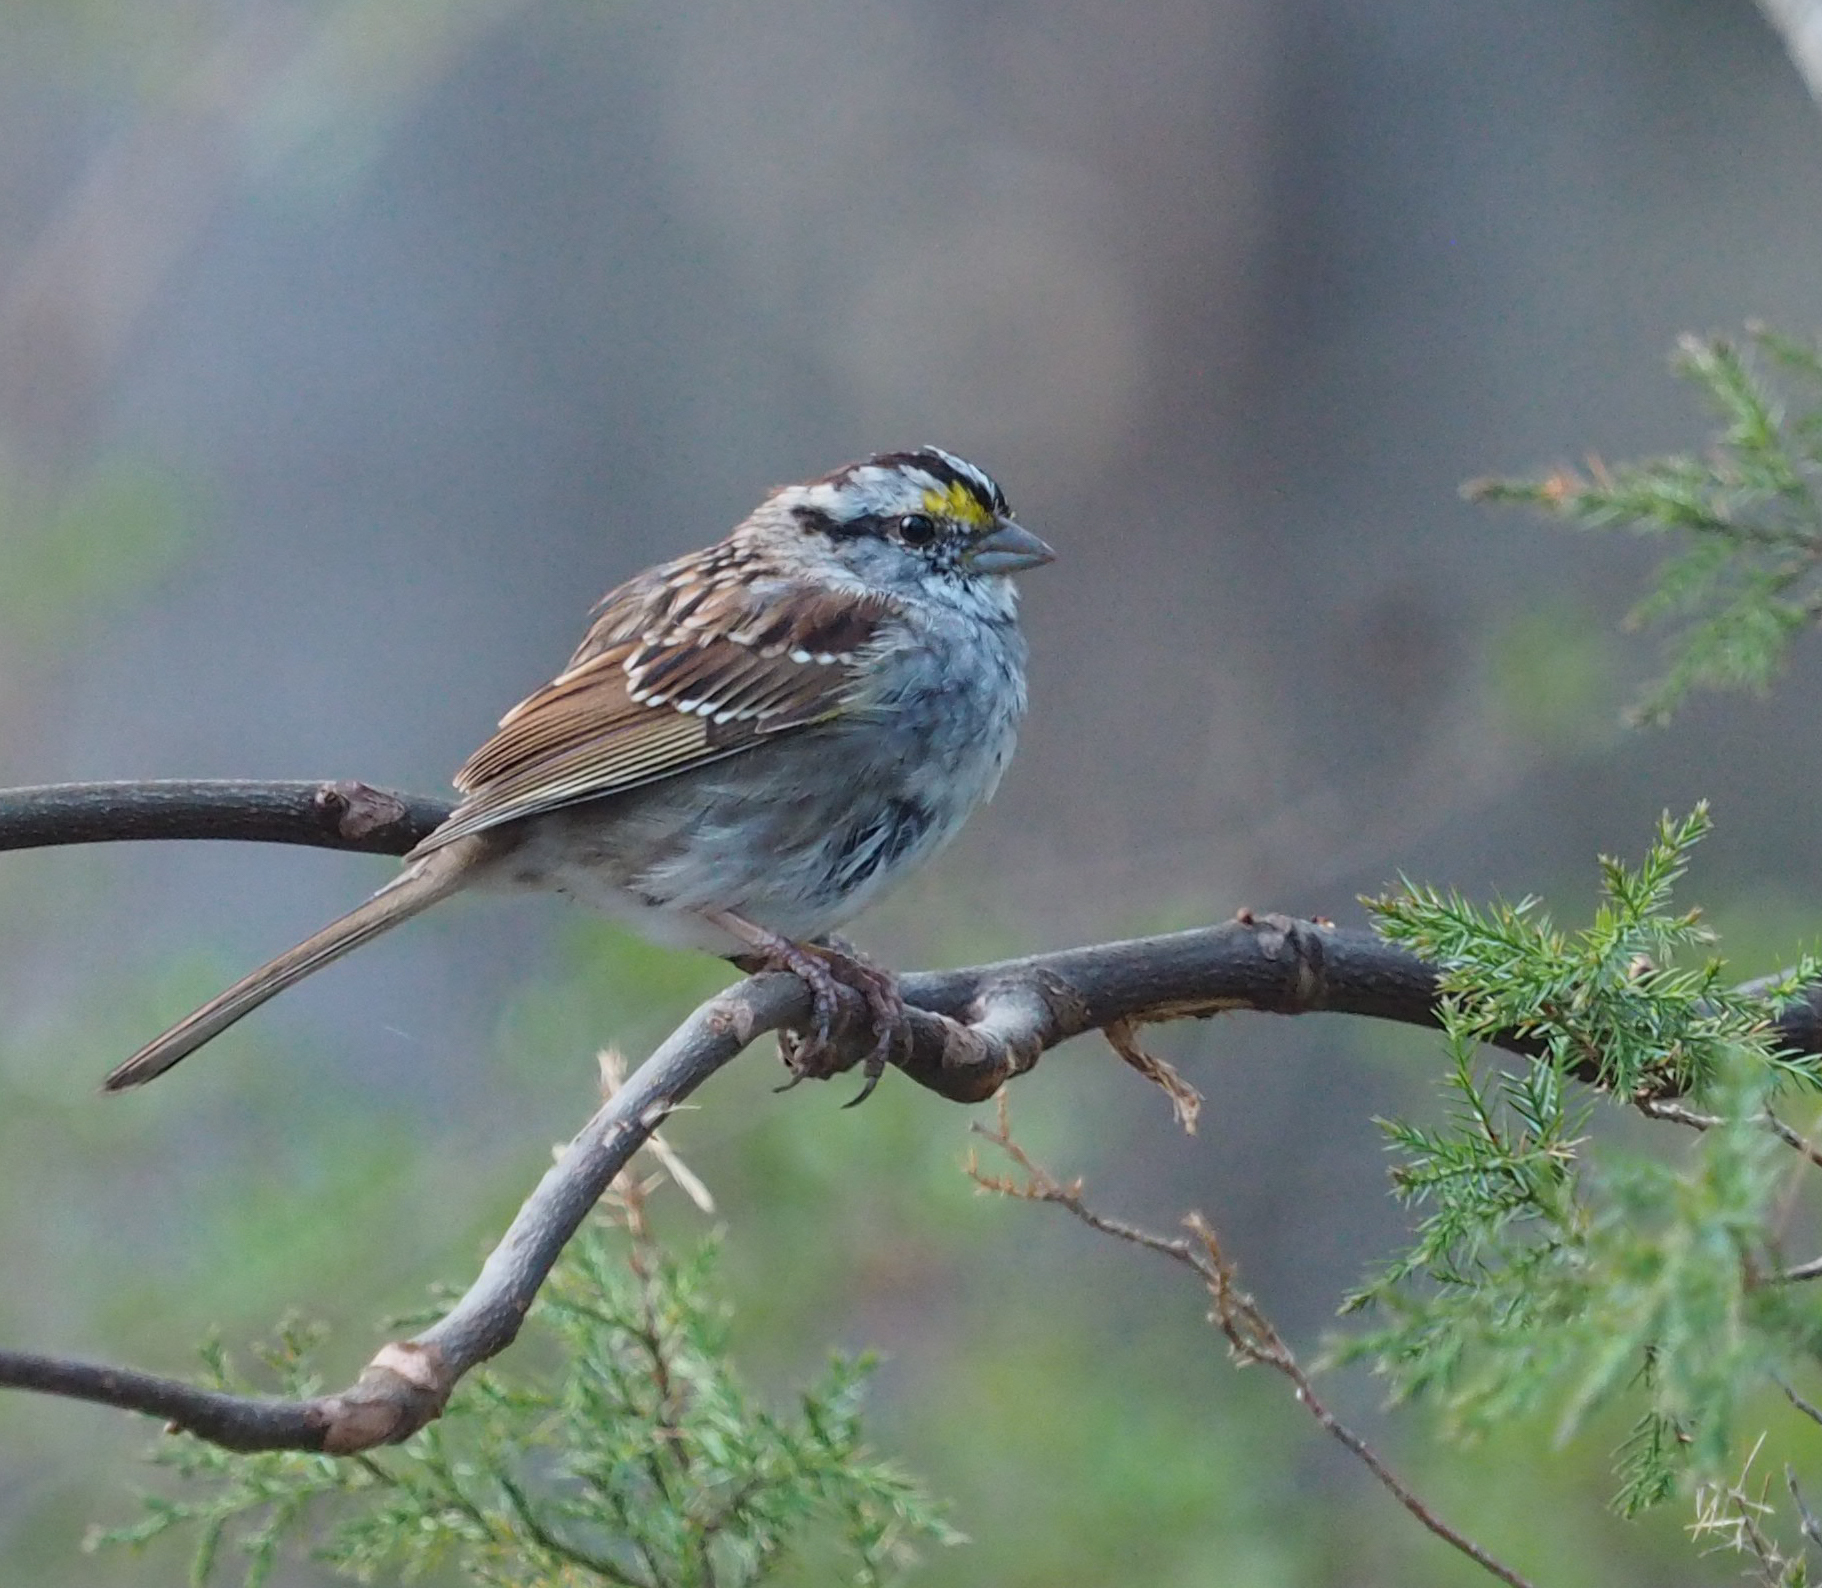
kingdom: Animalia
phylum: Chordata
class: Aves
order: Passeriformes
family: Passerellidae
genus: Zonotrichia
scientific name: Zonotrichia albicollis
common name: White-throated sparrow
